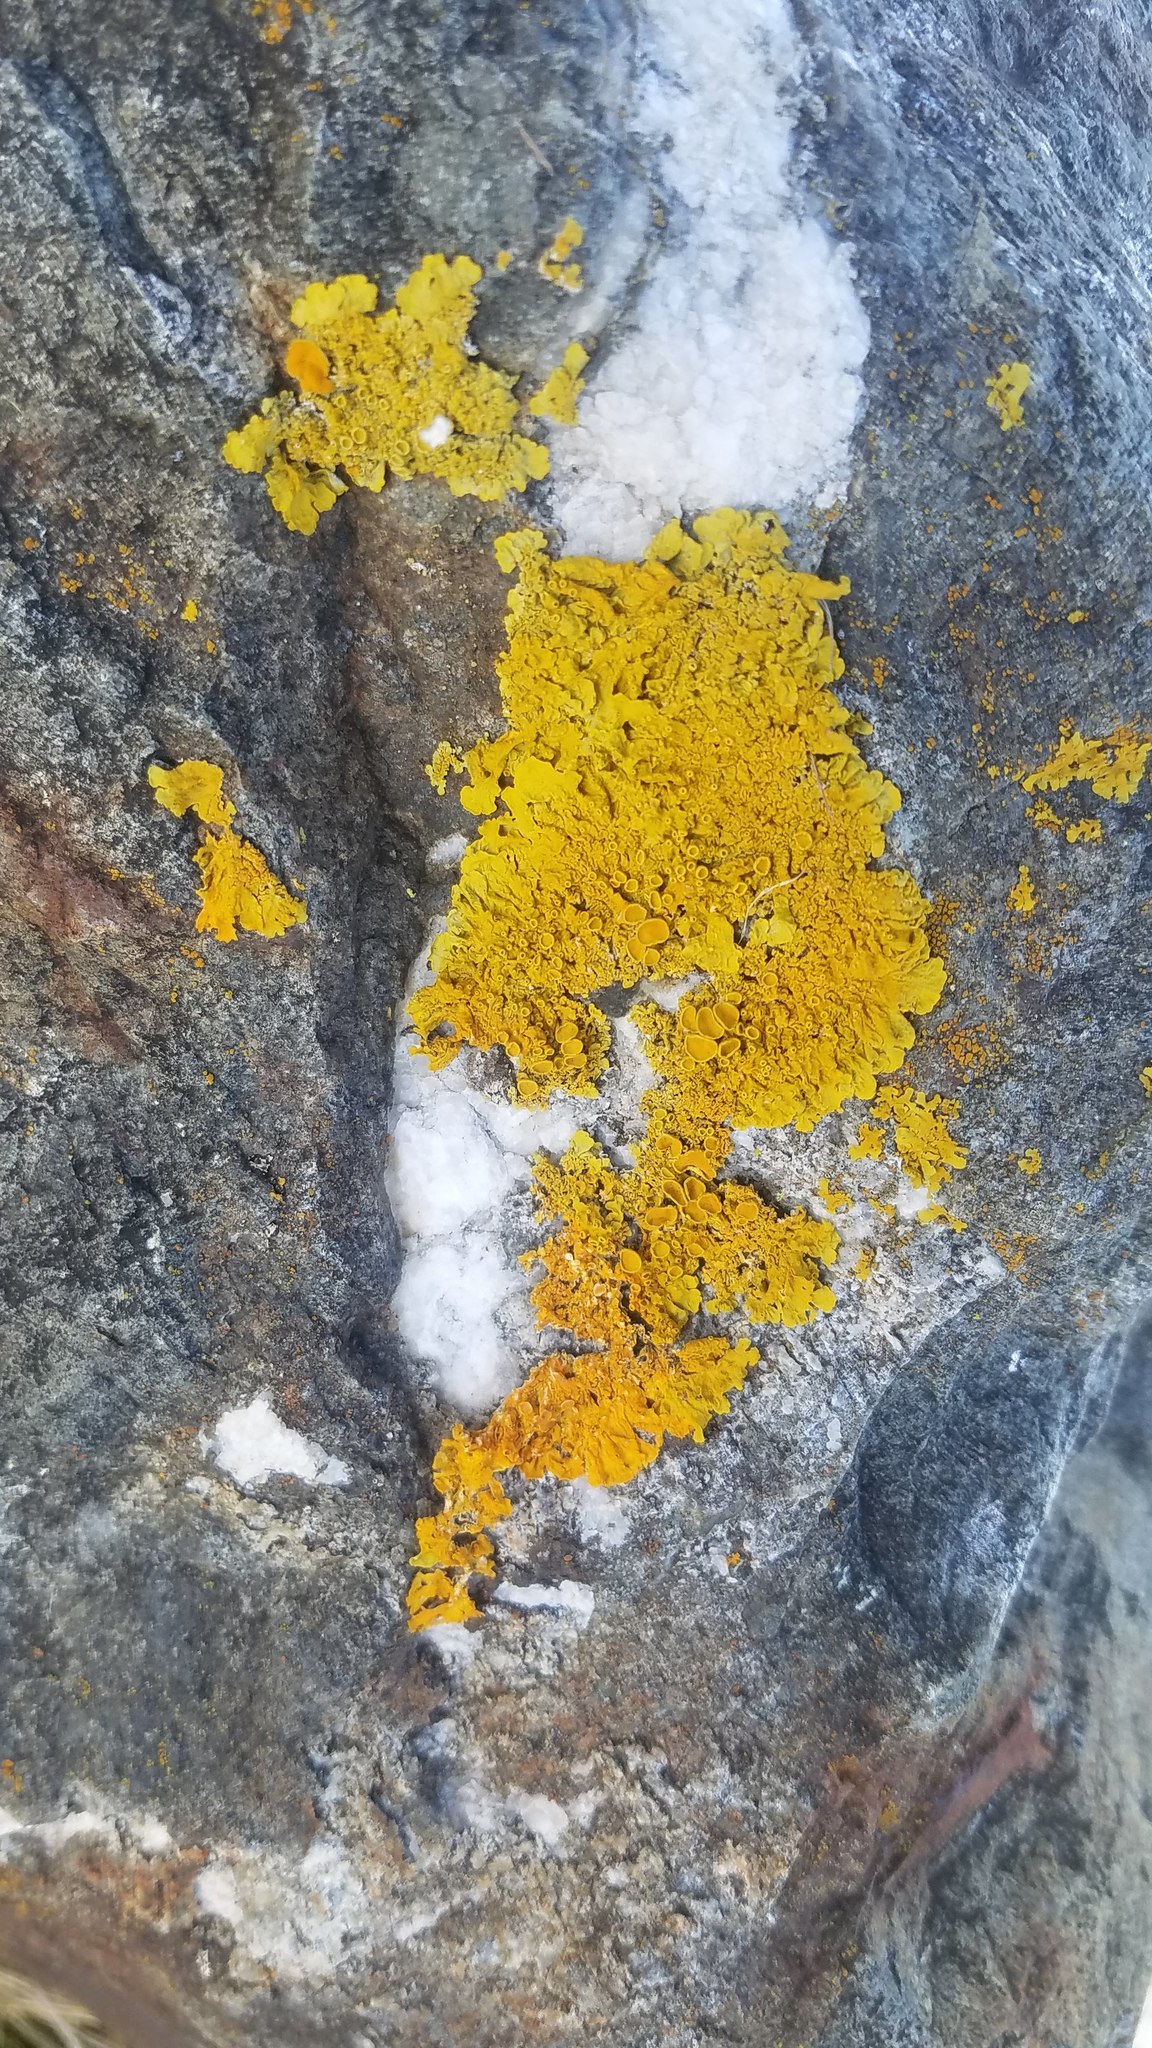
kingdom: Fungi
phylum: Ascomycota
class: Lecanoromycetes
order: Teloschistales
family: Teloschistaceae
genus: Xanthoria
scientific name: Xanthoria parietina
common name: Common orange lichen
